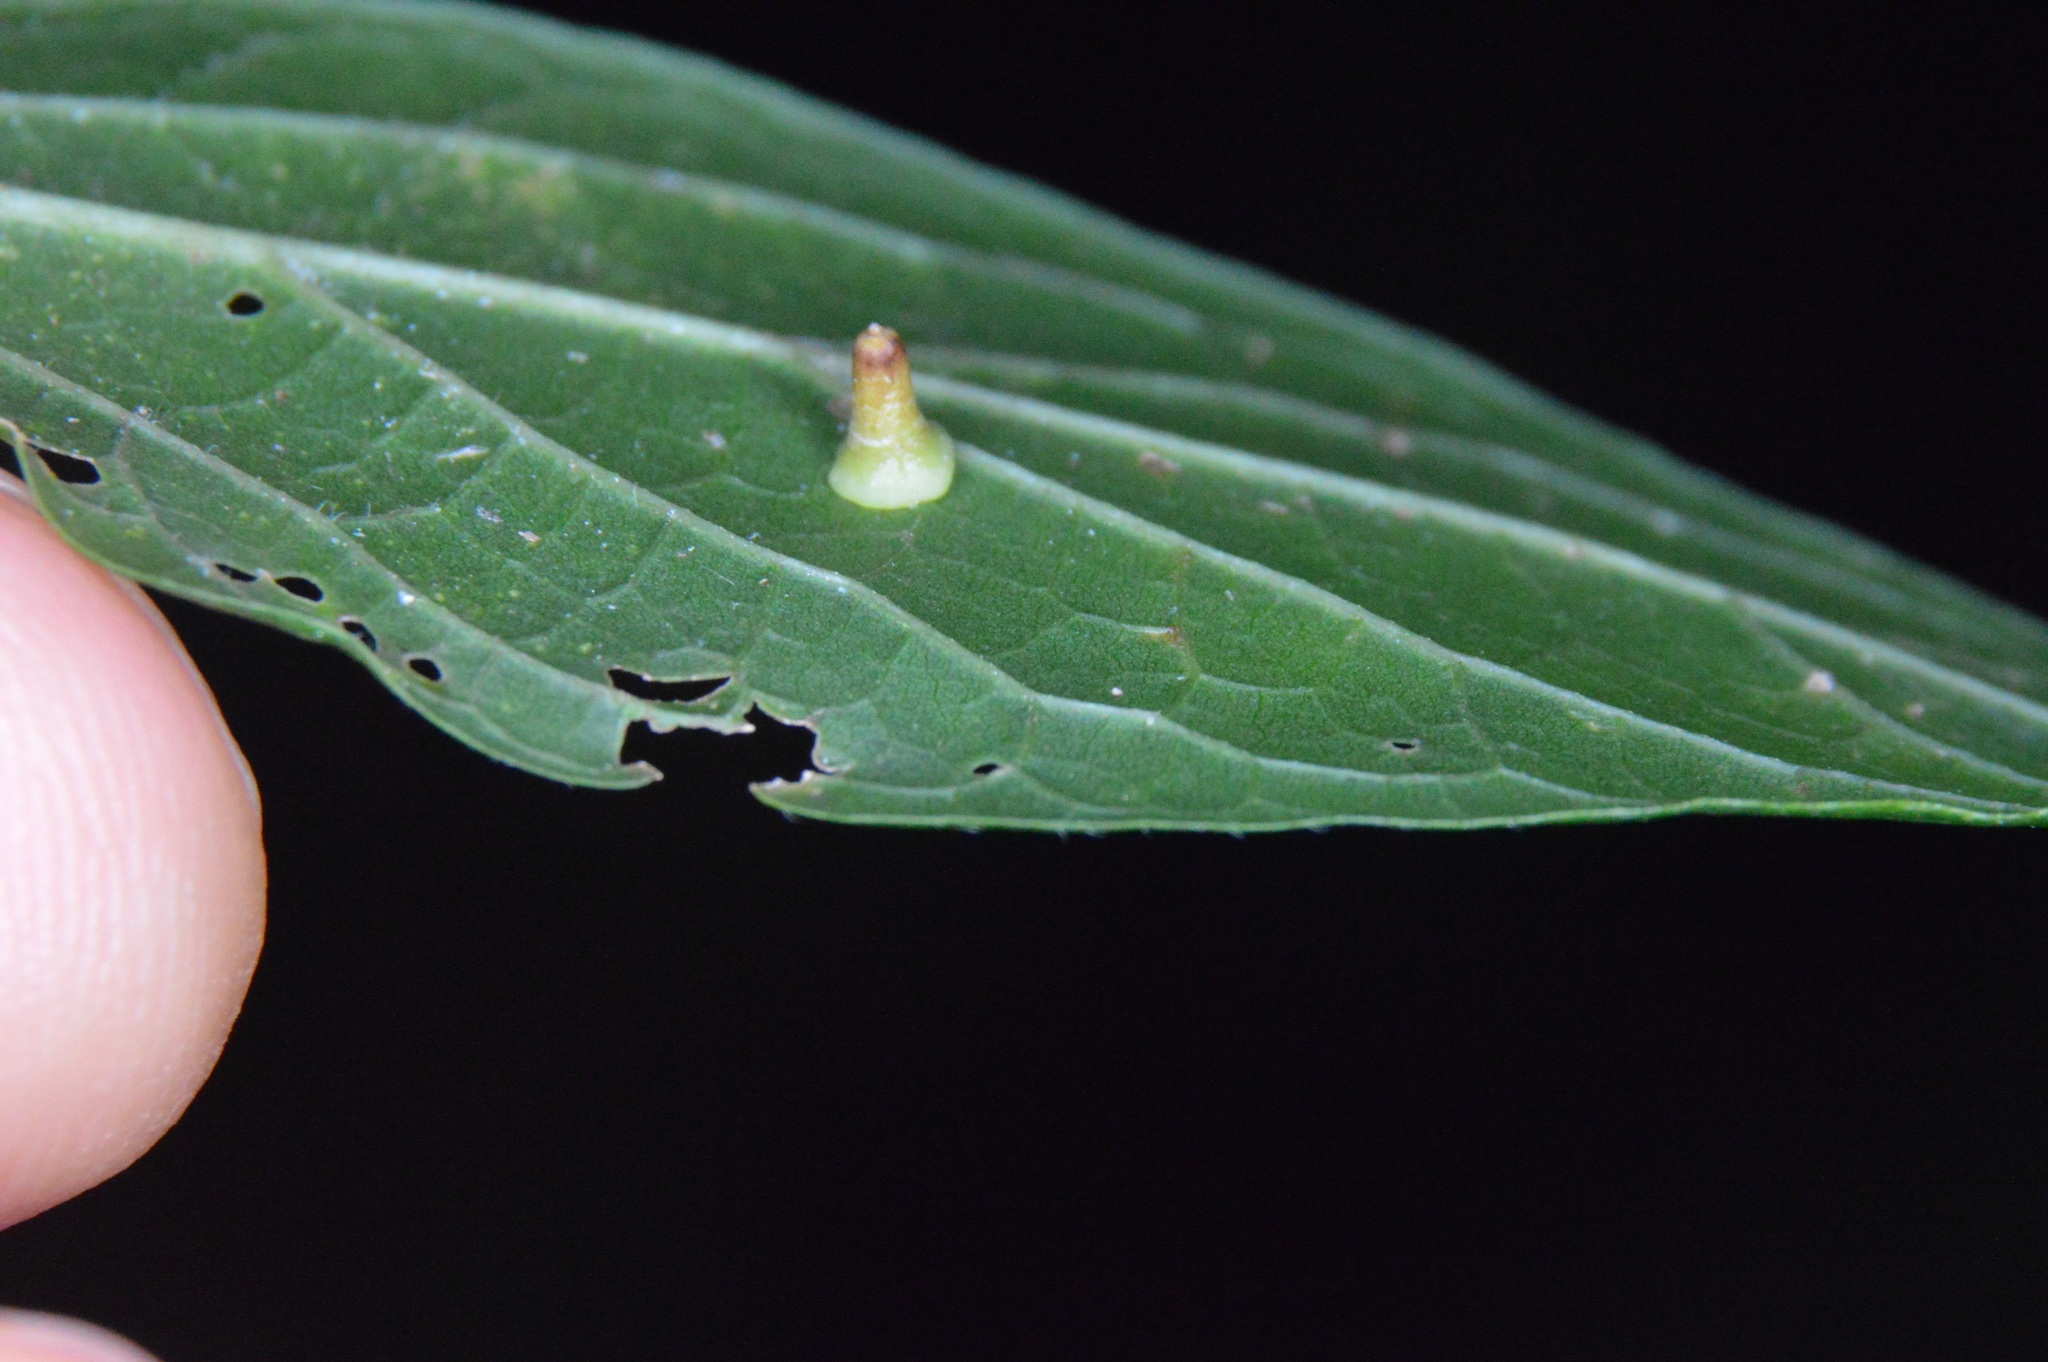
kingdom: Animalia
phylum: Arthropoda
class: Insecta
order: Diptera
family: Cecidomyiidae
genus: Celticecis
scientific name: Celticecis aciculata
